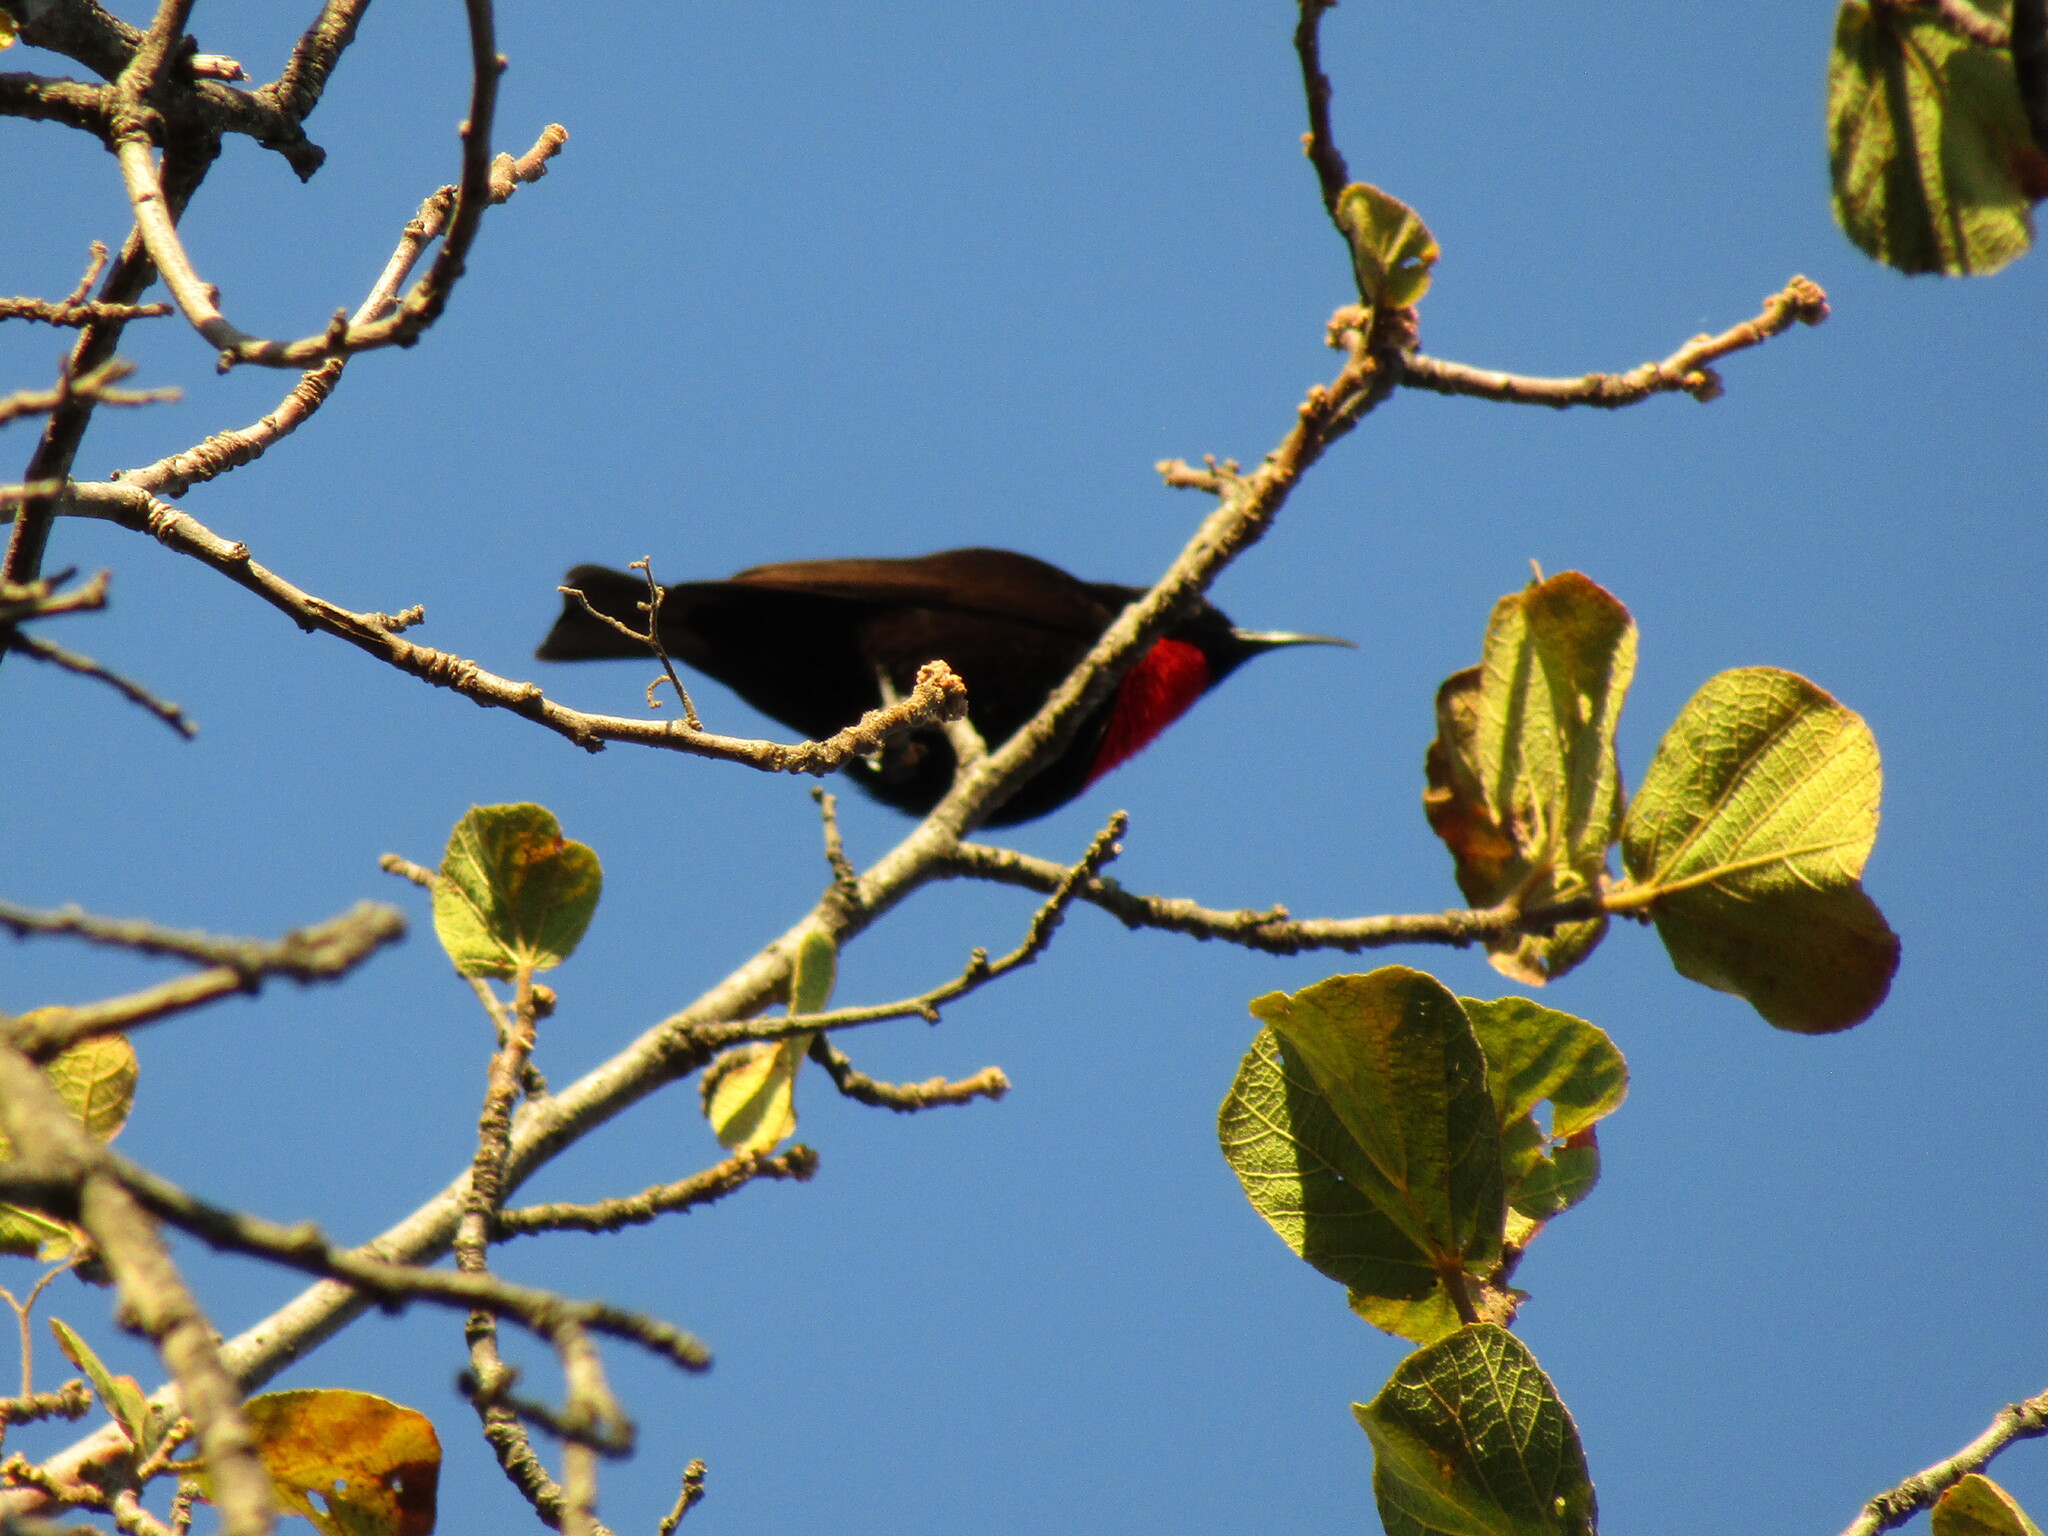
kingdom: Animalia
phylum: Chordata
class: Aves
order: Passeriformes
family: Nectariniidae
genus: Chalcomitra
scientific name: Chalcomitra senegalensis
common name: Scarlet-chested sunbird
